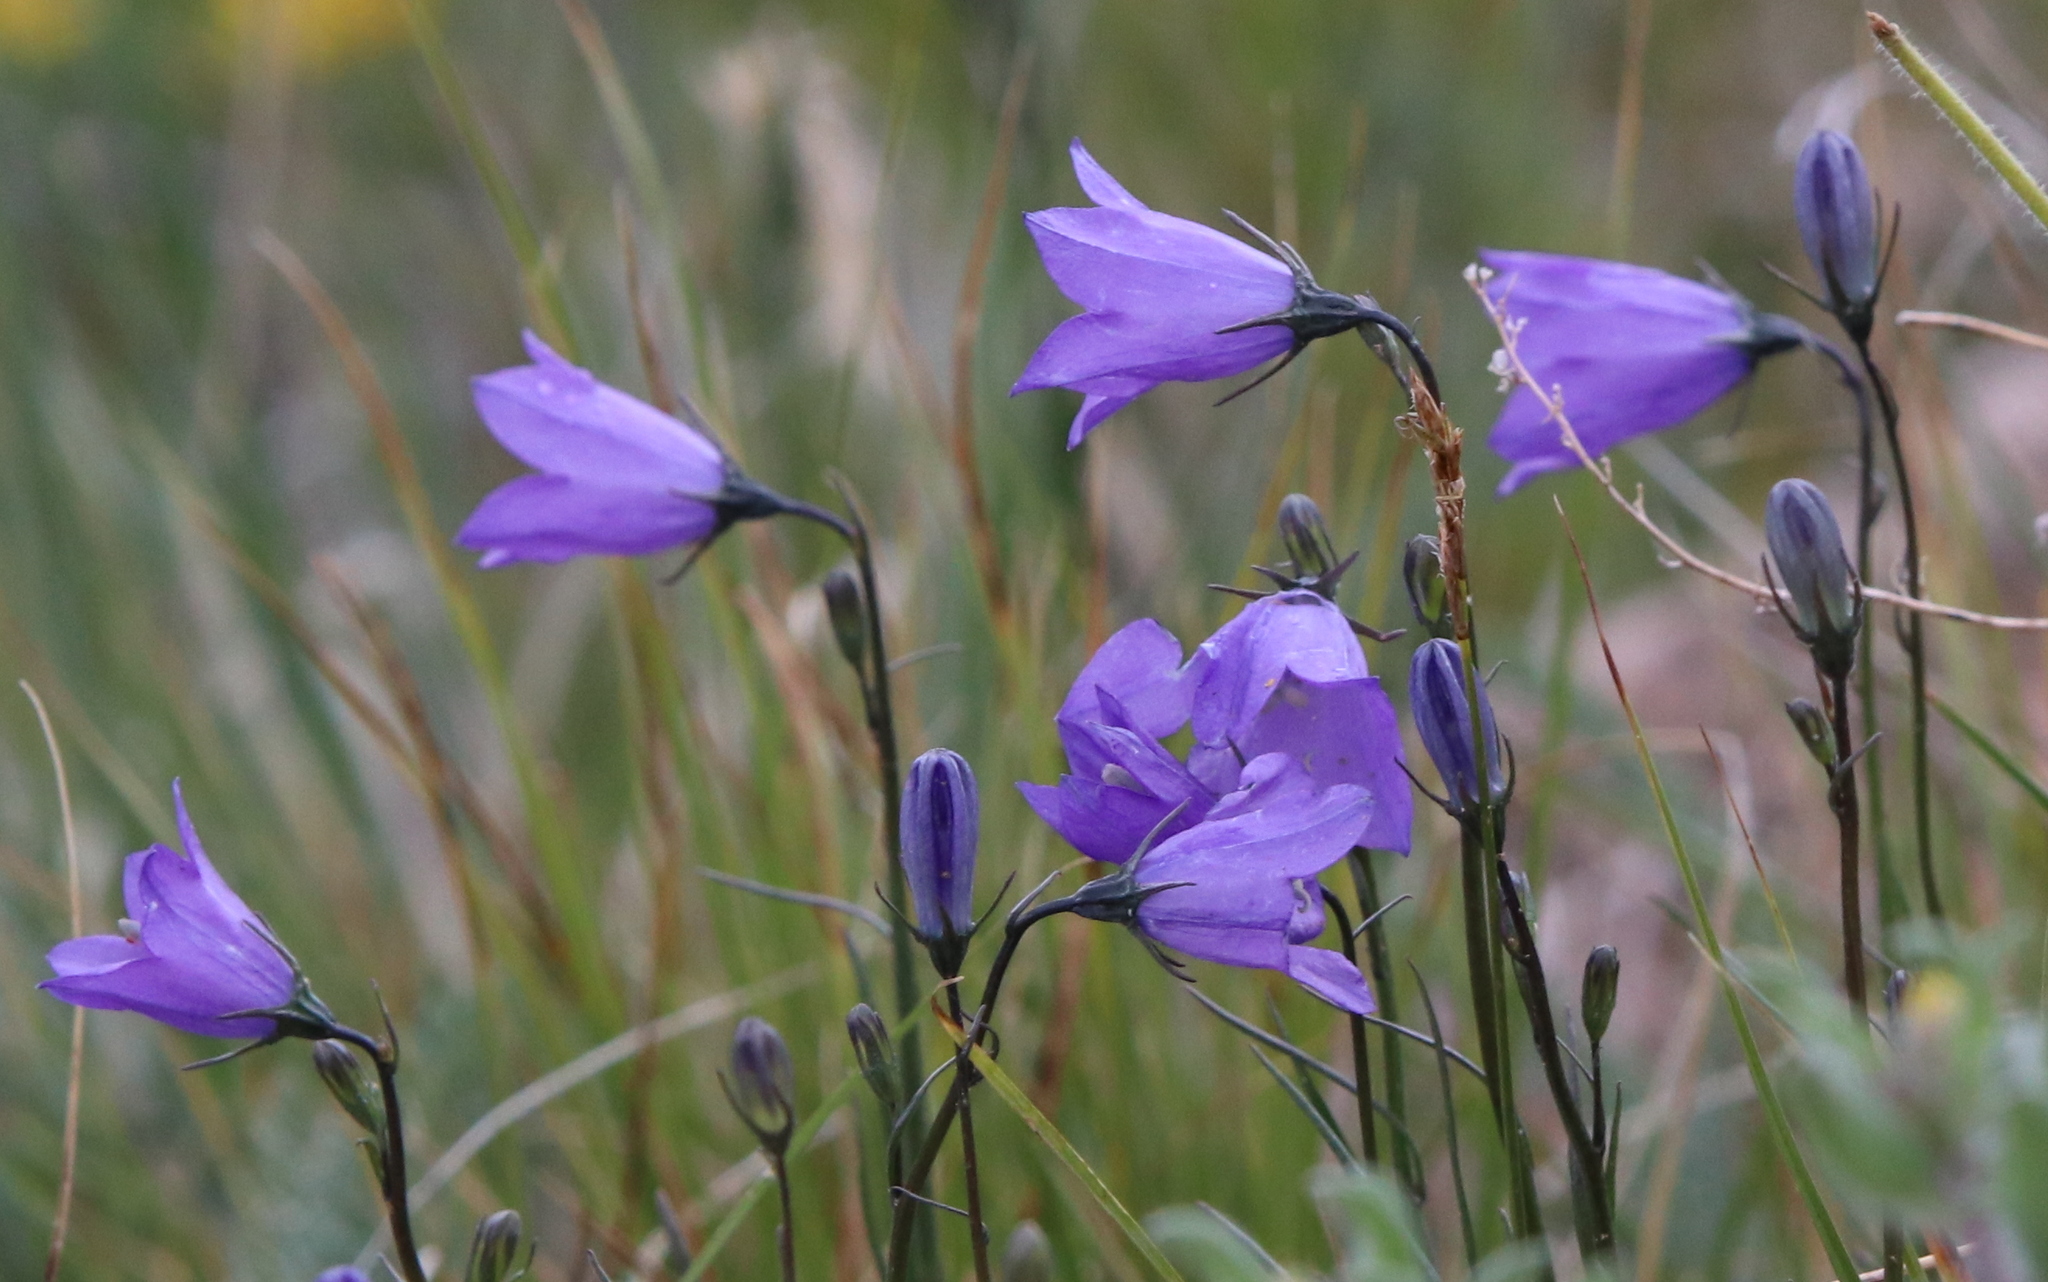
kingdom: Plantae
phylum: Tracheophyta
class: Magnoliopsida
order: Asterales
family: Campanulaceae
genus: Campanula
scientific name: Campanula petiolata
